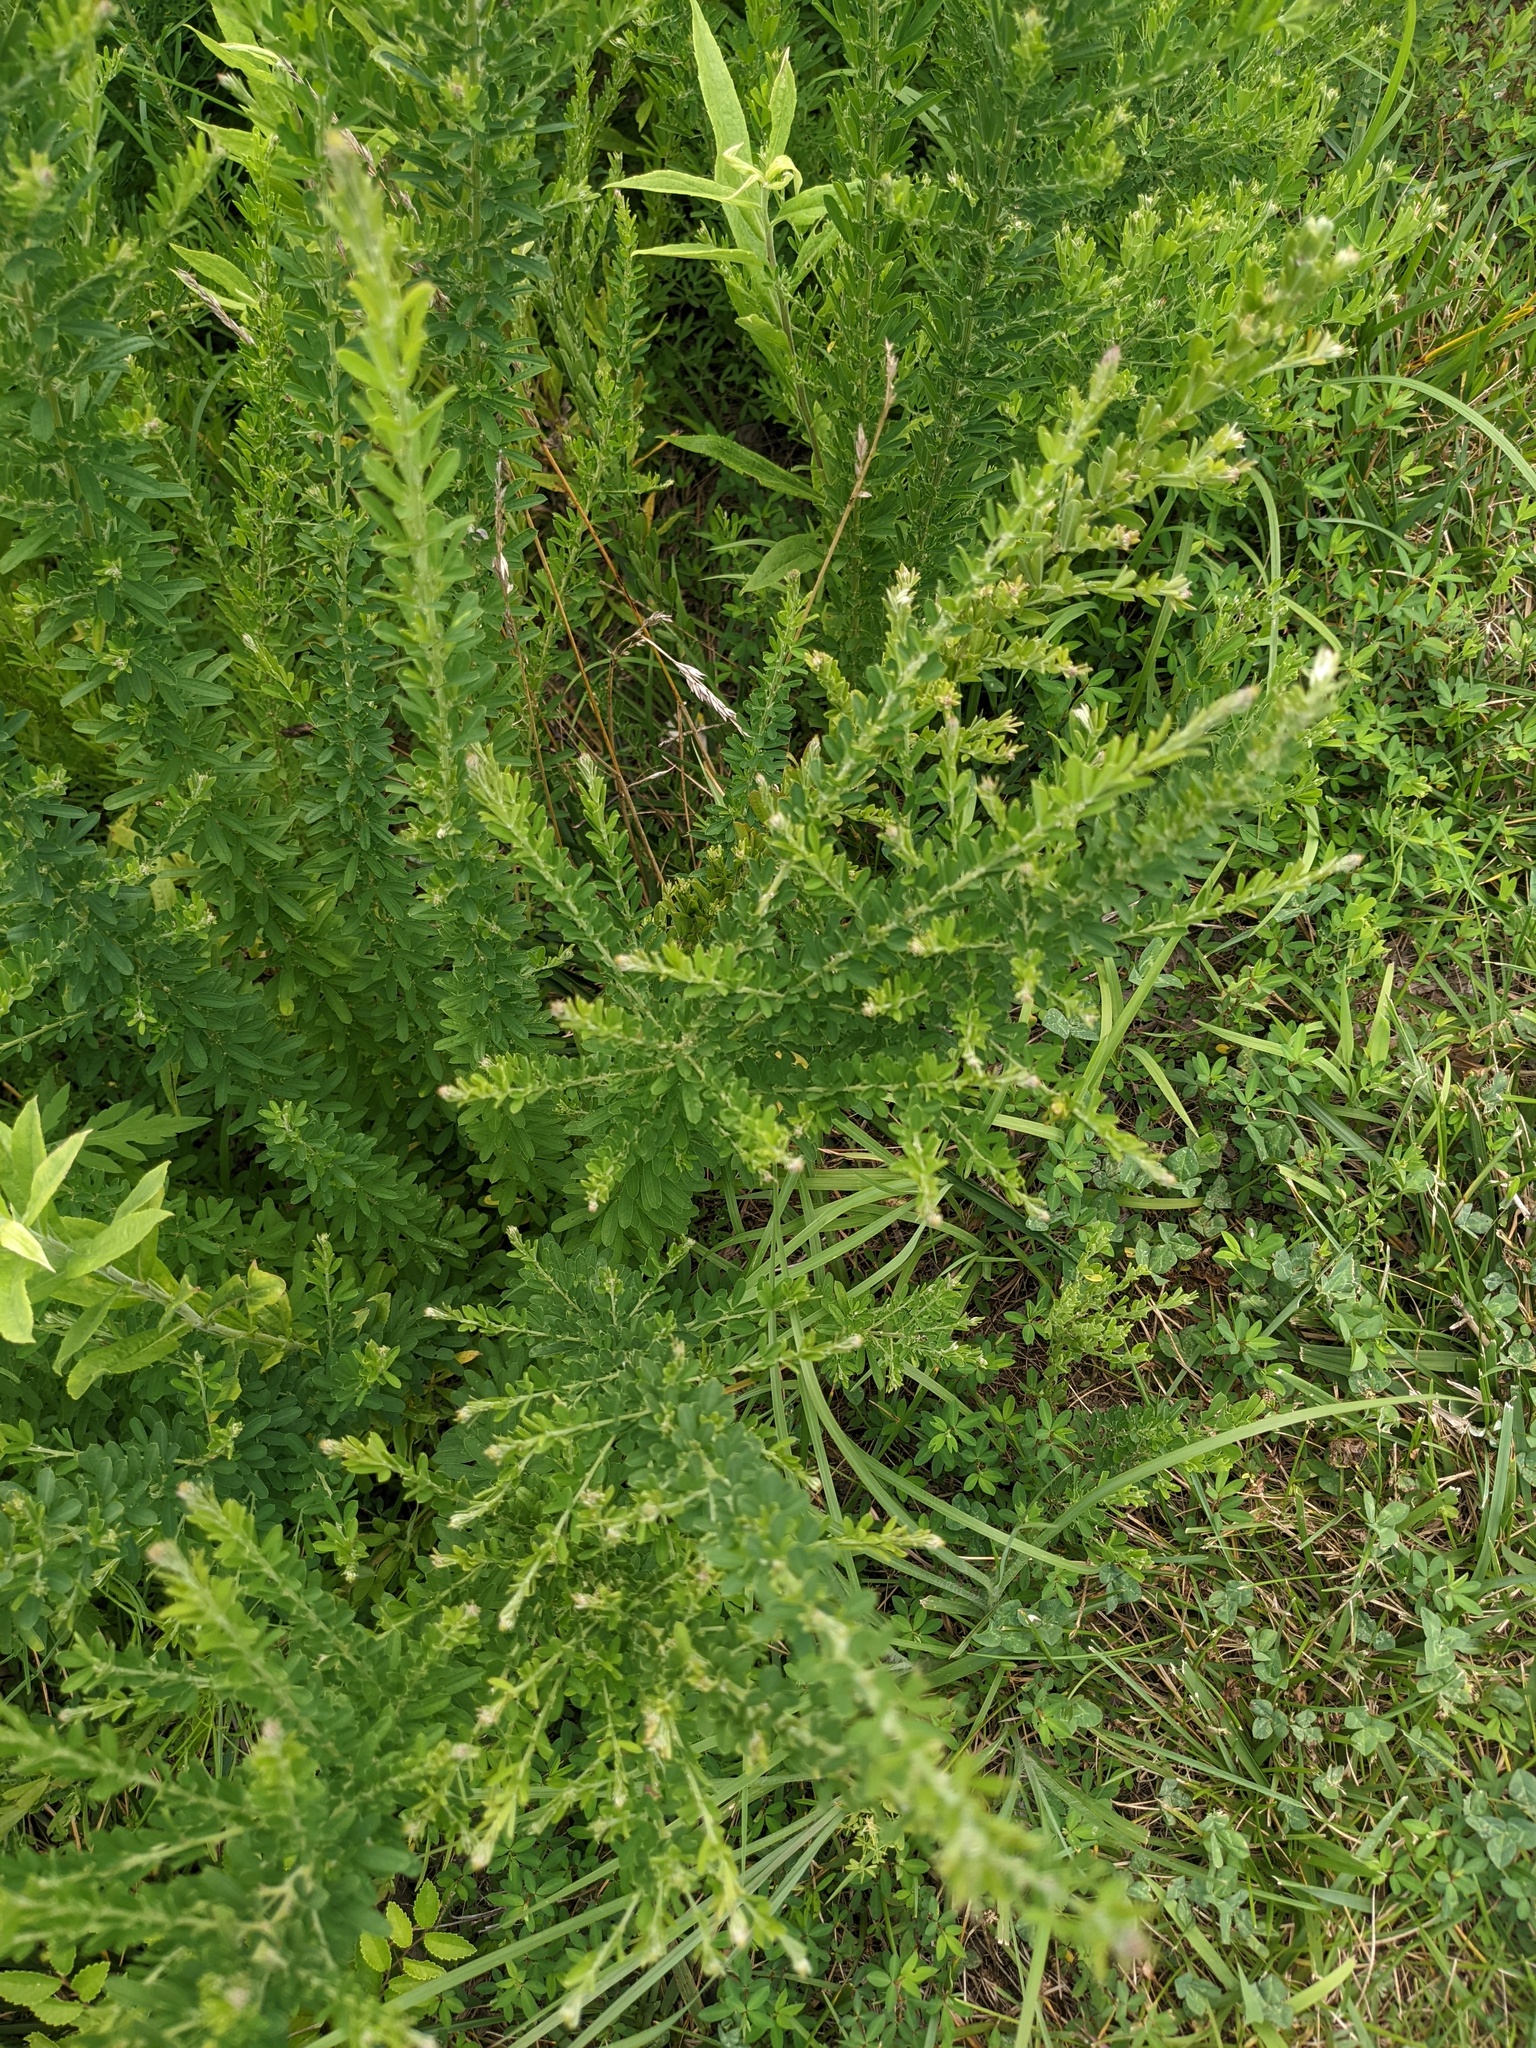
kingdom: Plantae
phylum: Tracheophyta
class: Magnoliopsida
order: Fabales
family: Fabaceae
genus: Lespedeza
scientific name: Lespedeza cuneata
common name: Chinese bush-clover
